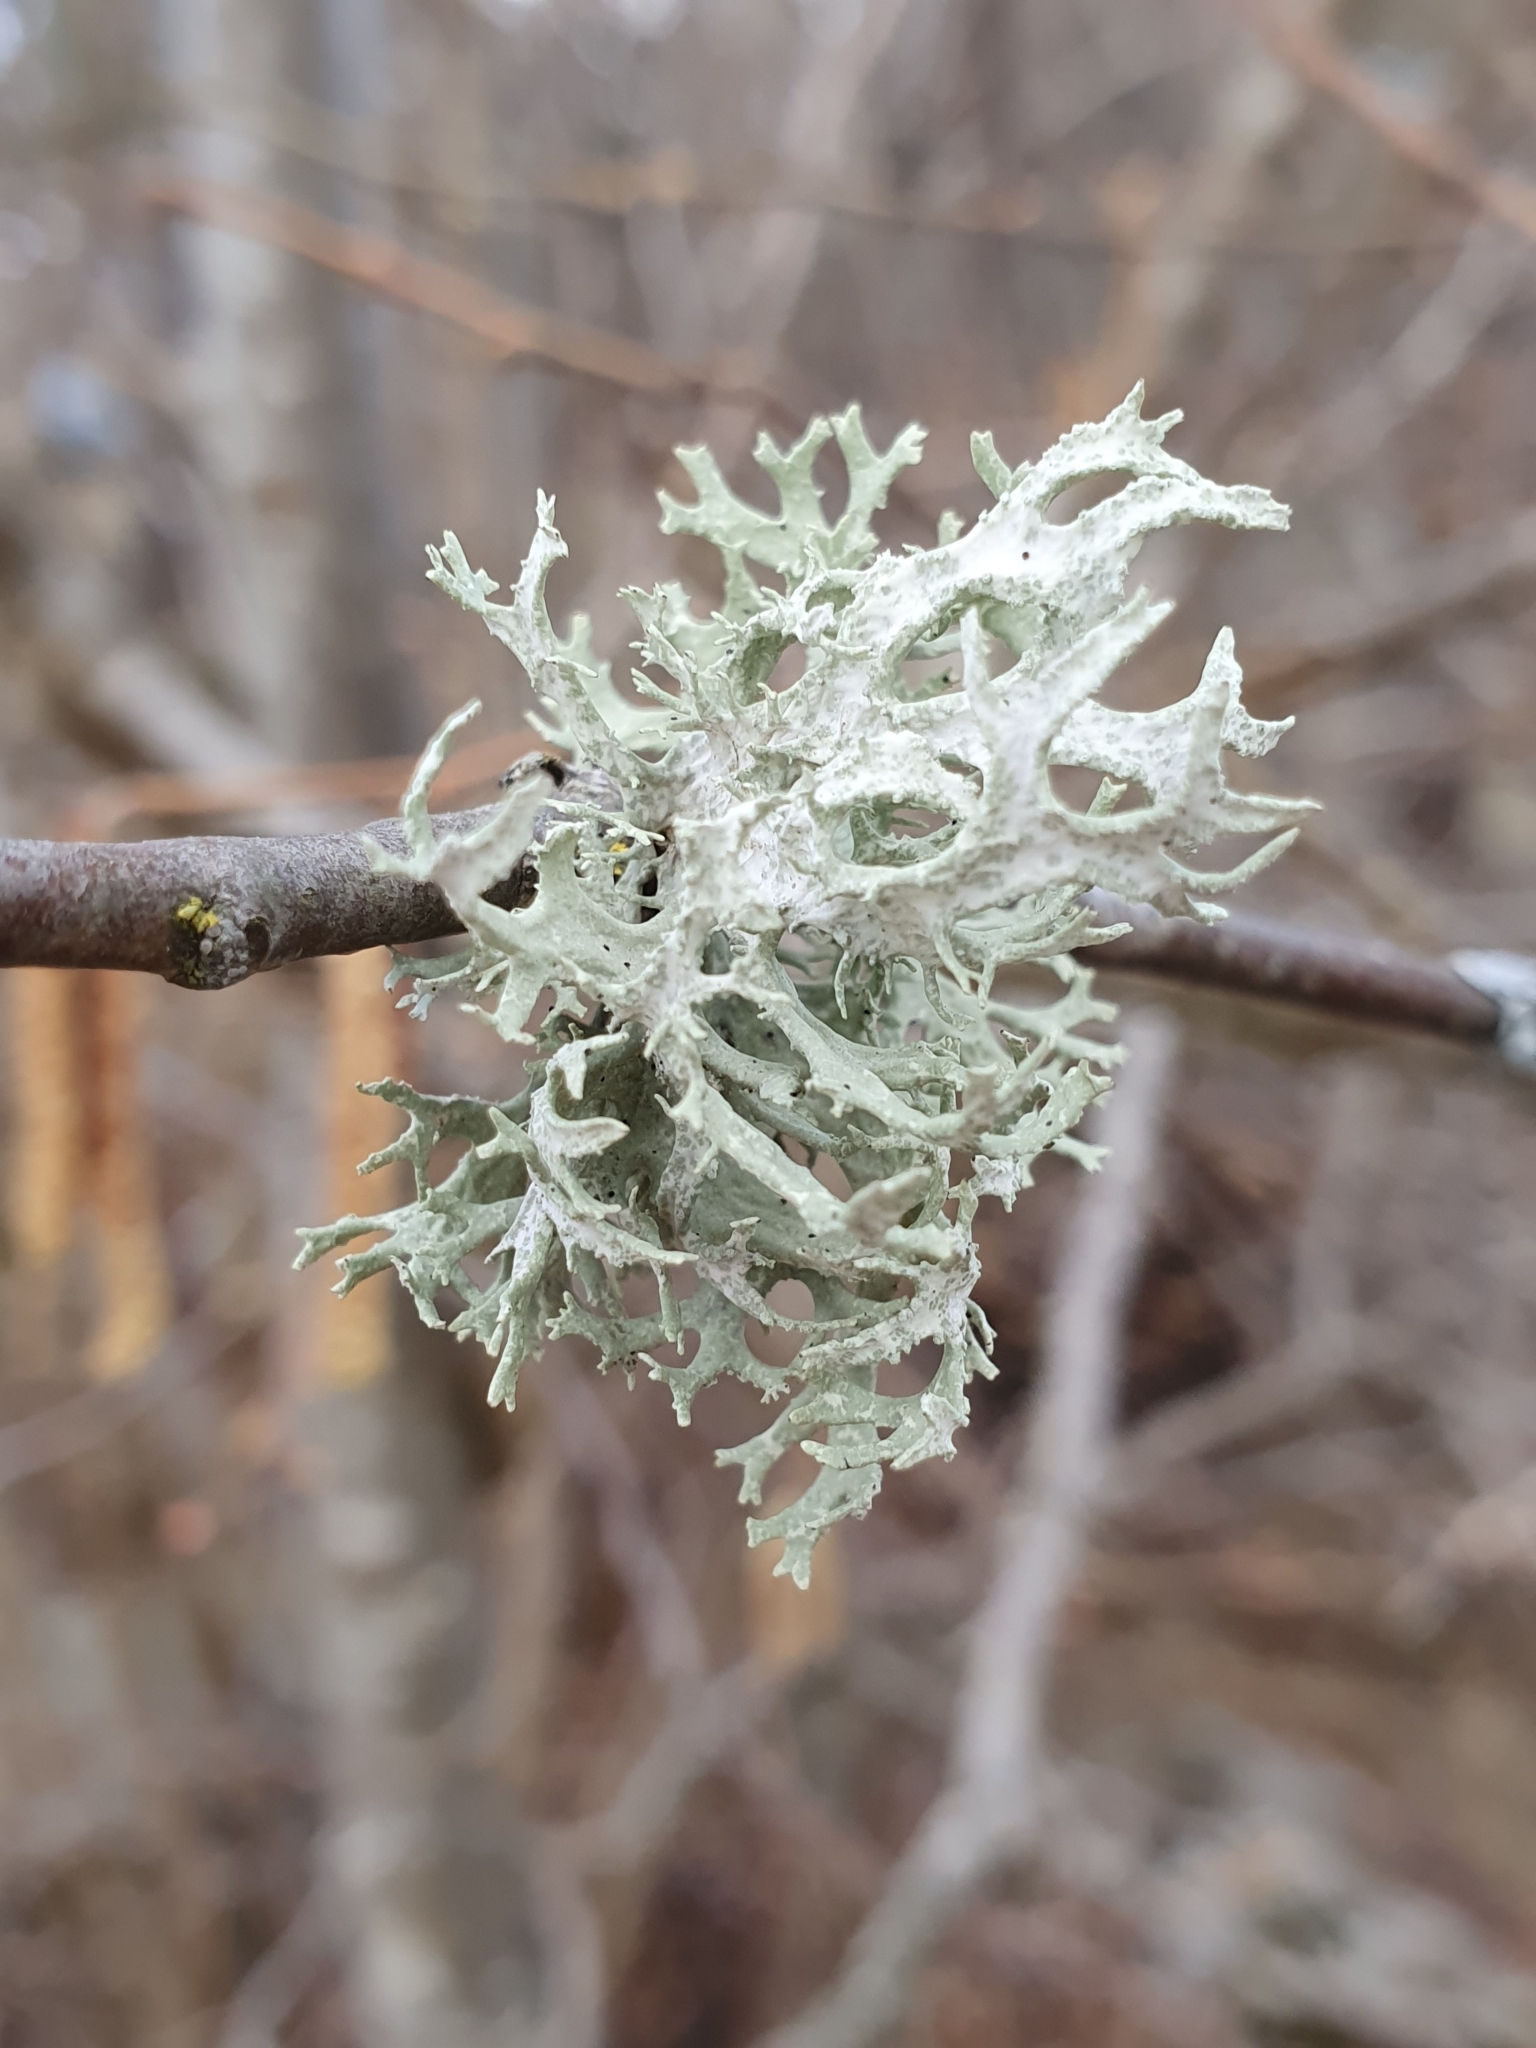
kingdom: Fungi
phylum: Ascomycota
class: Lecanoromycetes
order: Lecanorales
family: Parmeliaceae
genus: Evernia
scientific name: Evernia prunastri
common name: Oak moss
